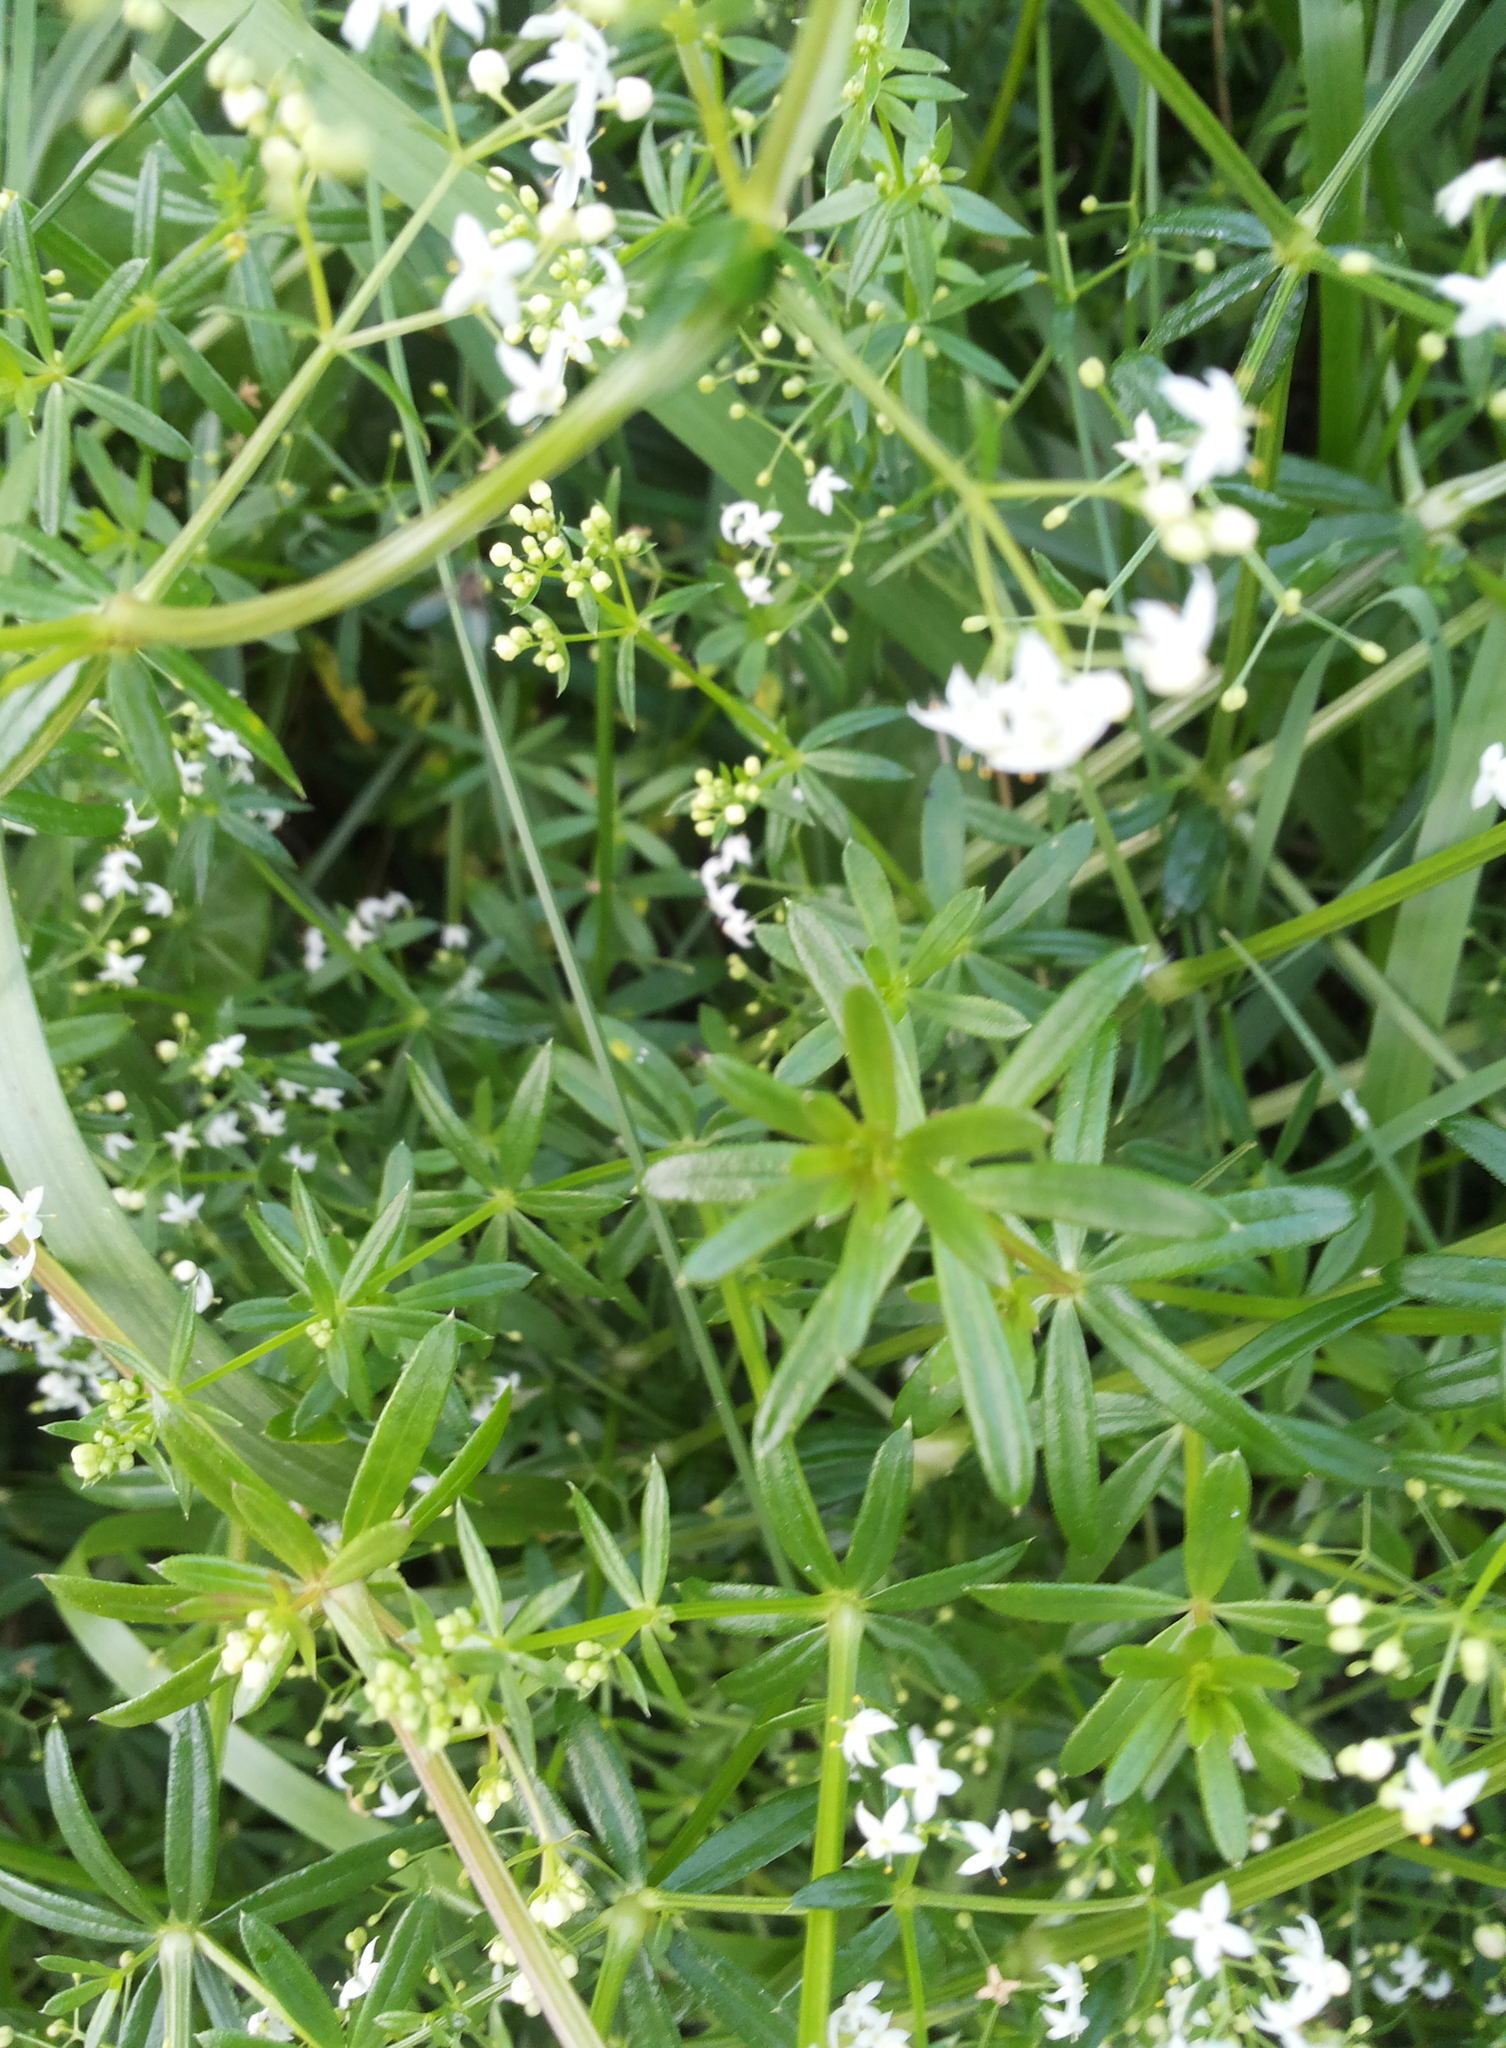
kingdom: Plantae
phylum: Tracheophyta
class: Magnoliopsida
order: Gentianales
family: Rubiaceae
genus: Galium
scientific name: Galium album
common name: White bedstraw
